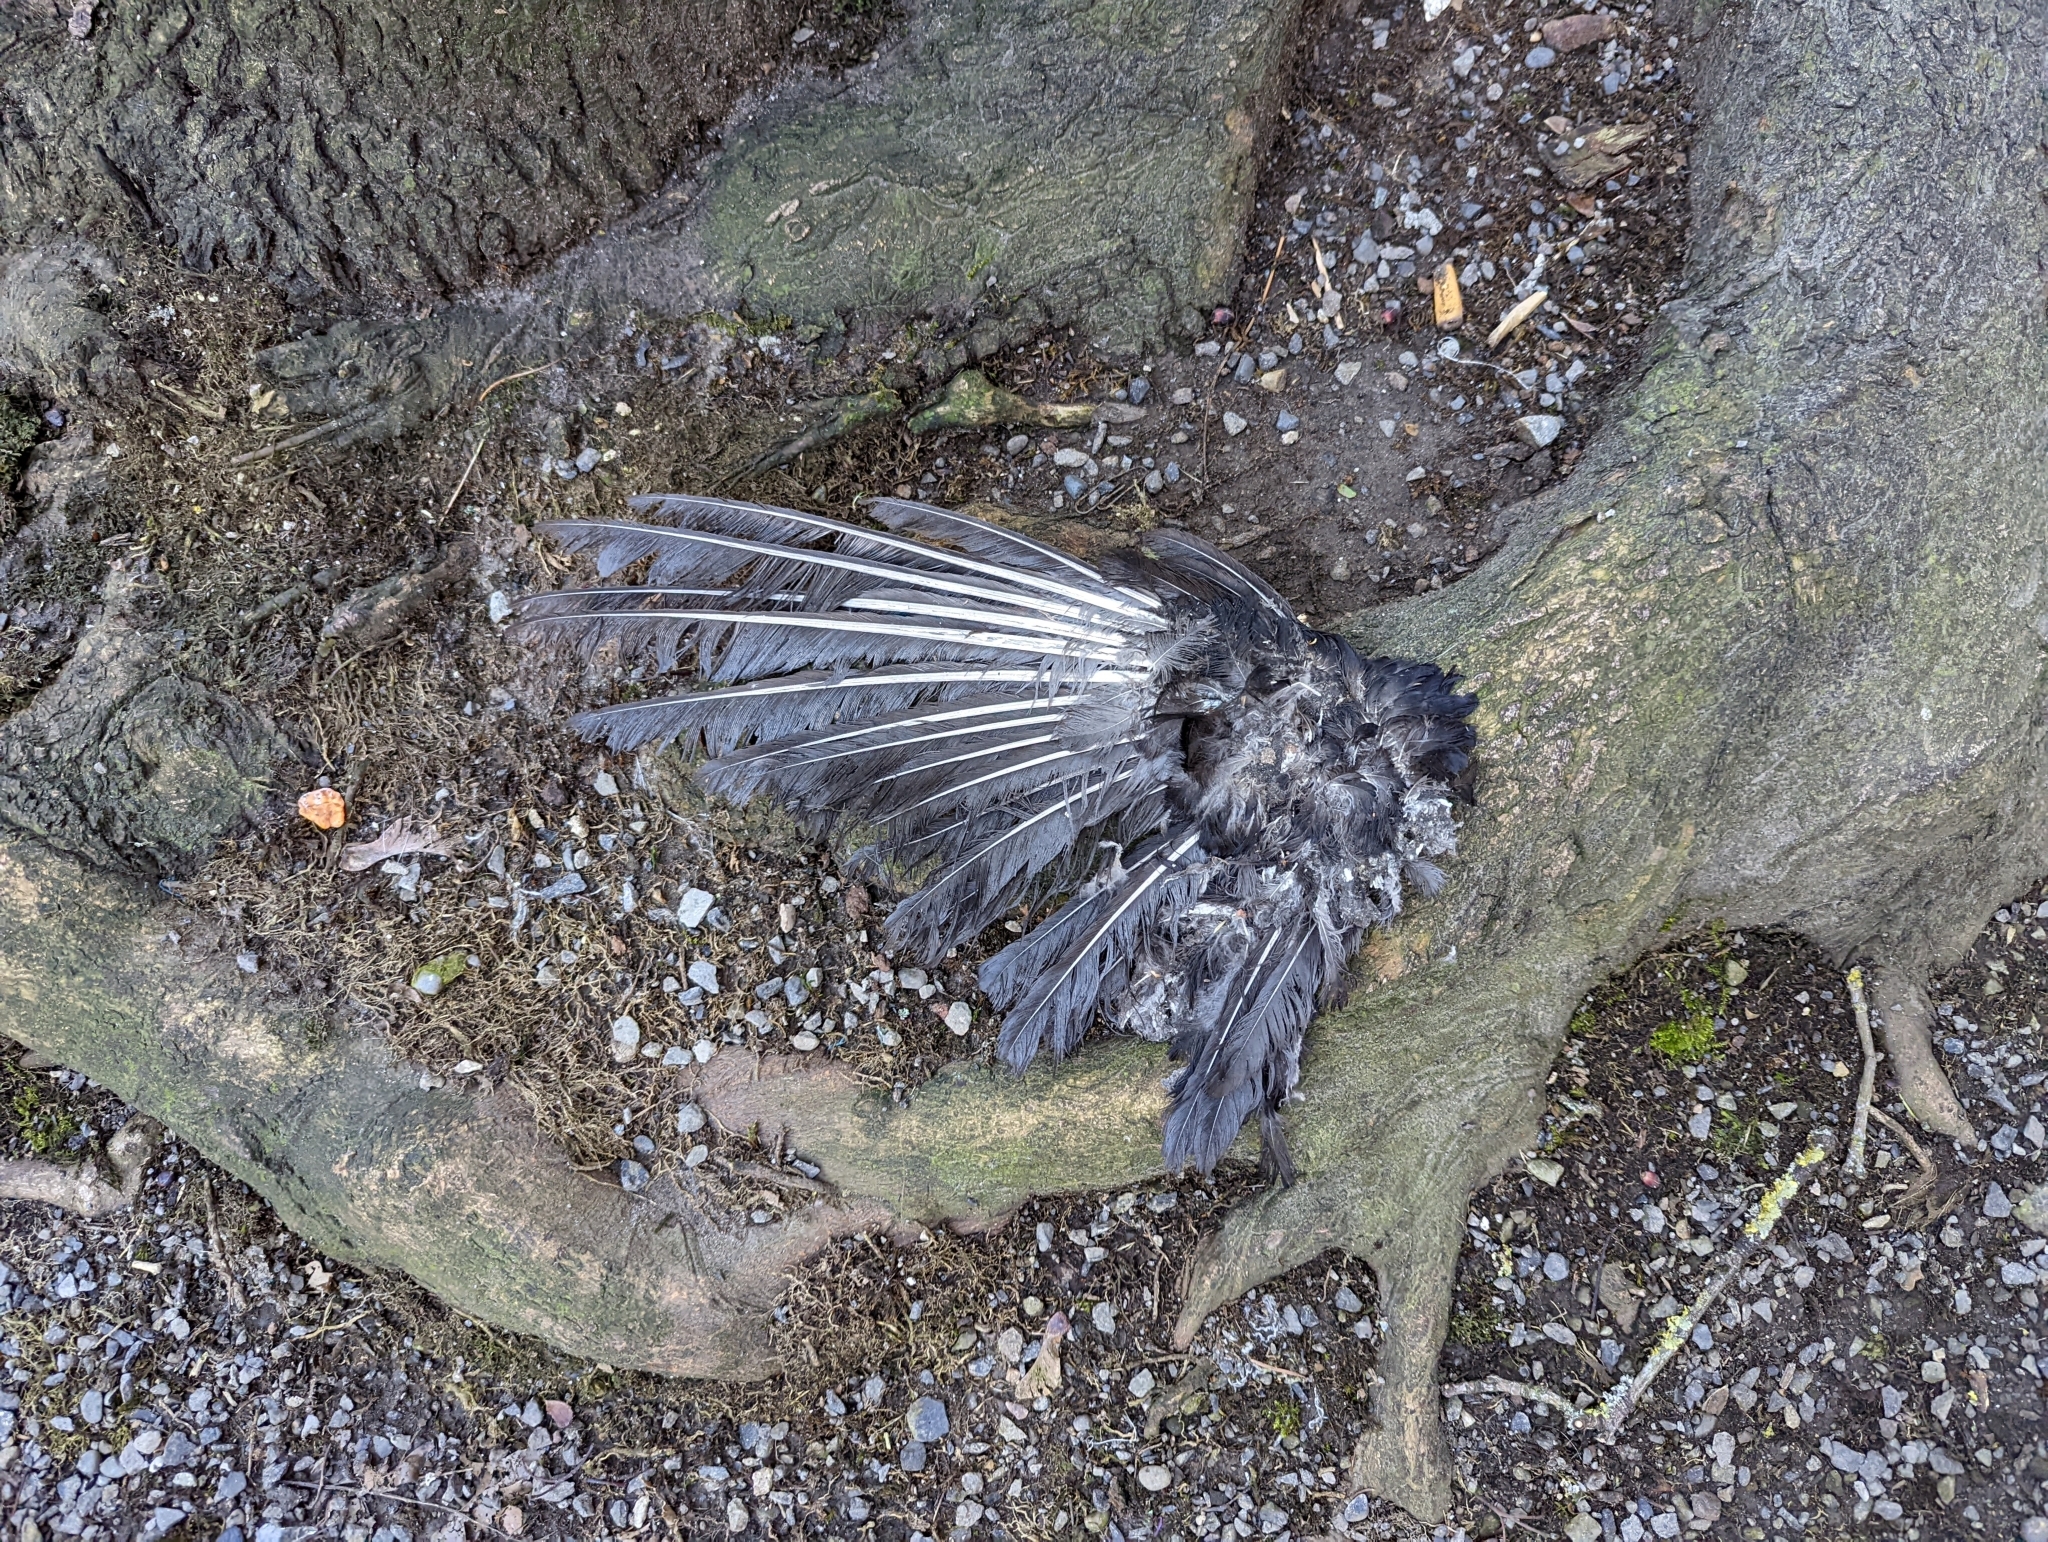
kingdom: Animalia
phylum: Chordata
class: Aves
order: Passeriformes
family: Corvidae
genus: Corvus
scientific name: Corvus brachyrhynchos
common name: American crow
